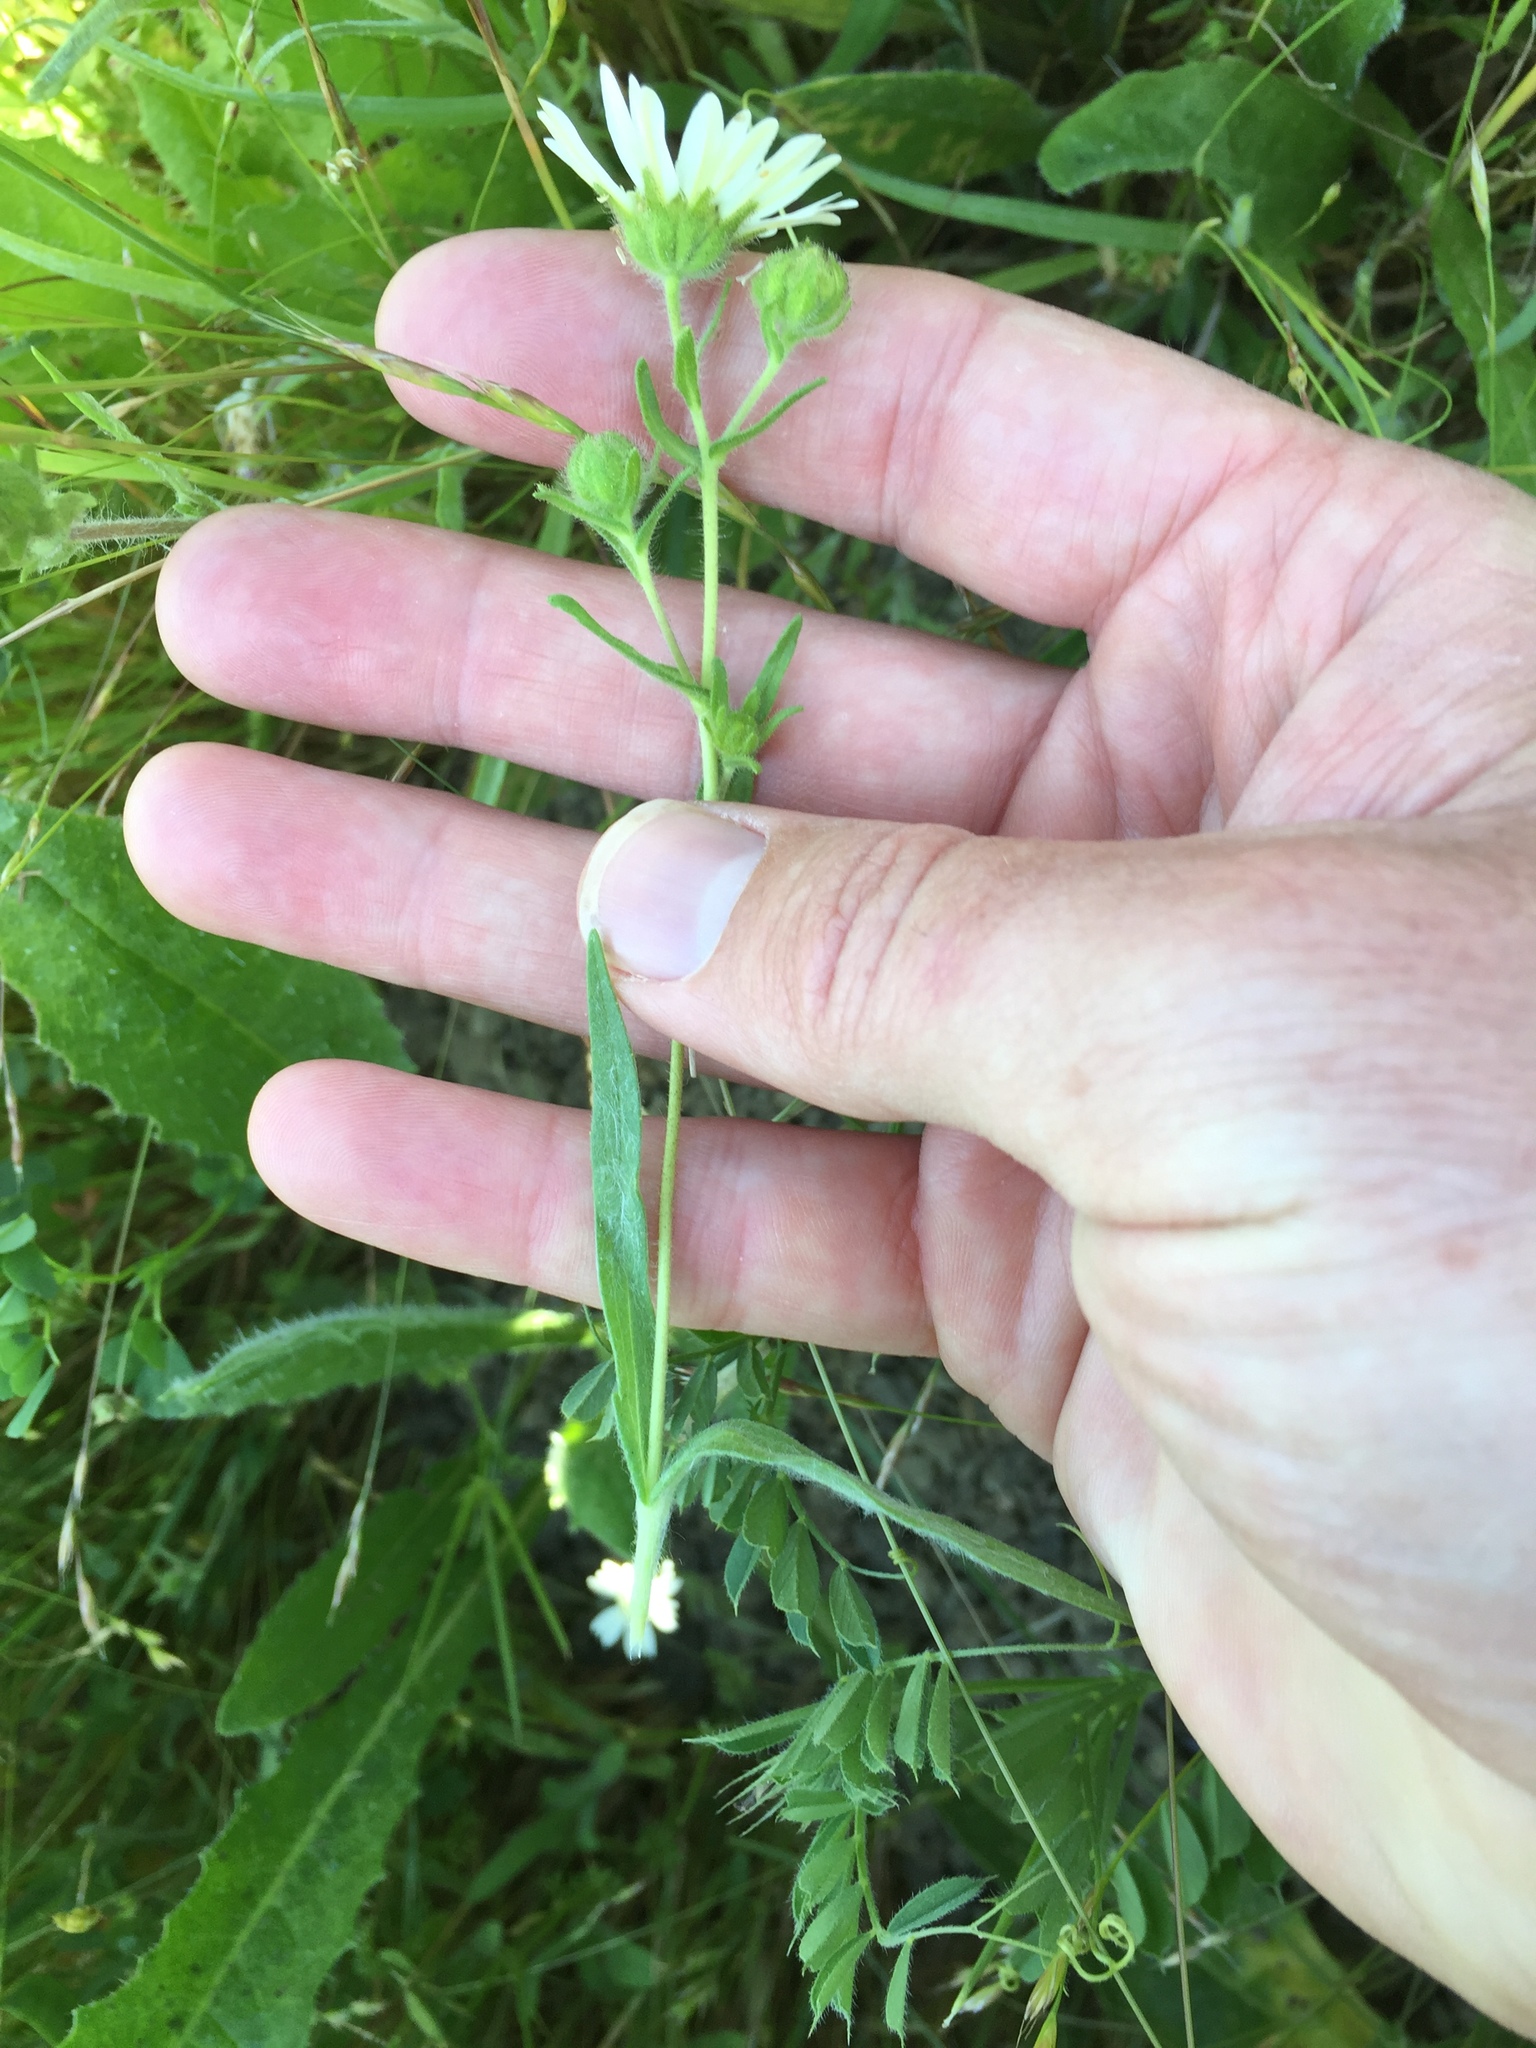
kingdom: Plantae
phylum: Tracheophyta
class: Magnoliopsida
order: Asterales
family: Asteraceae
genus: Hemizonia
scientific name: Hemizonia congesta
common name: Hayfield tarweed
